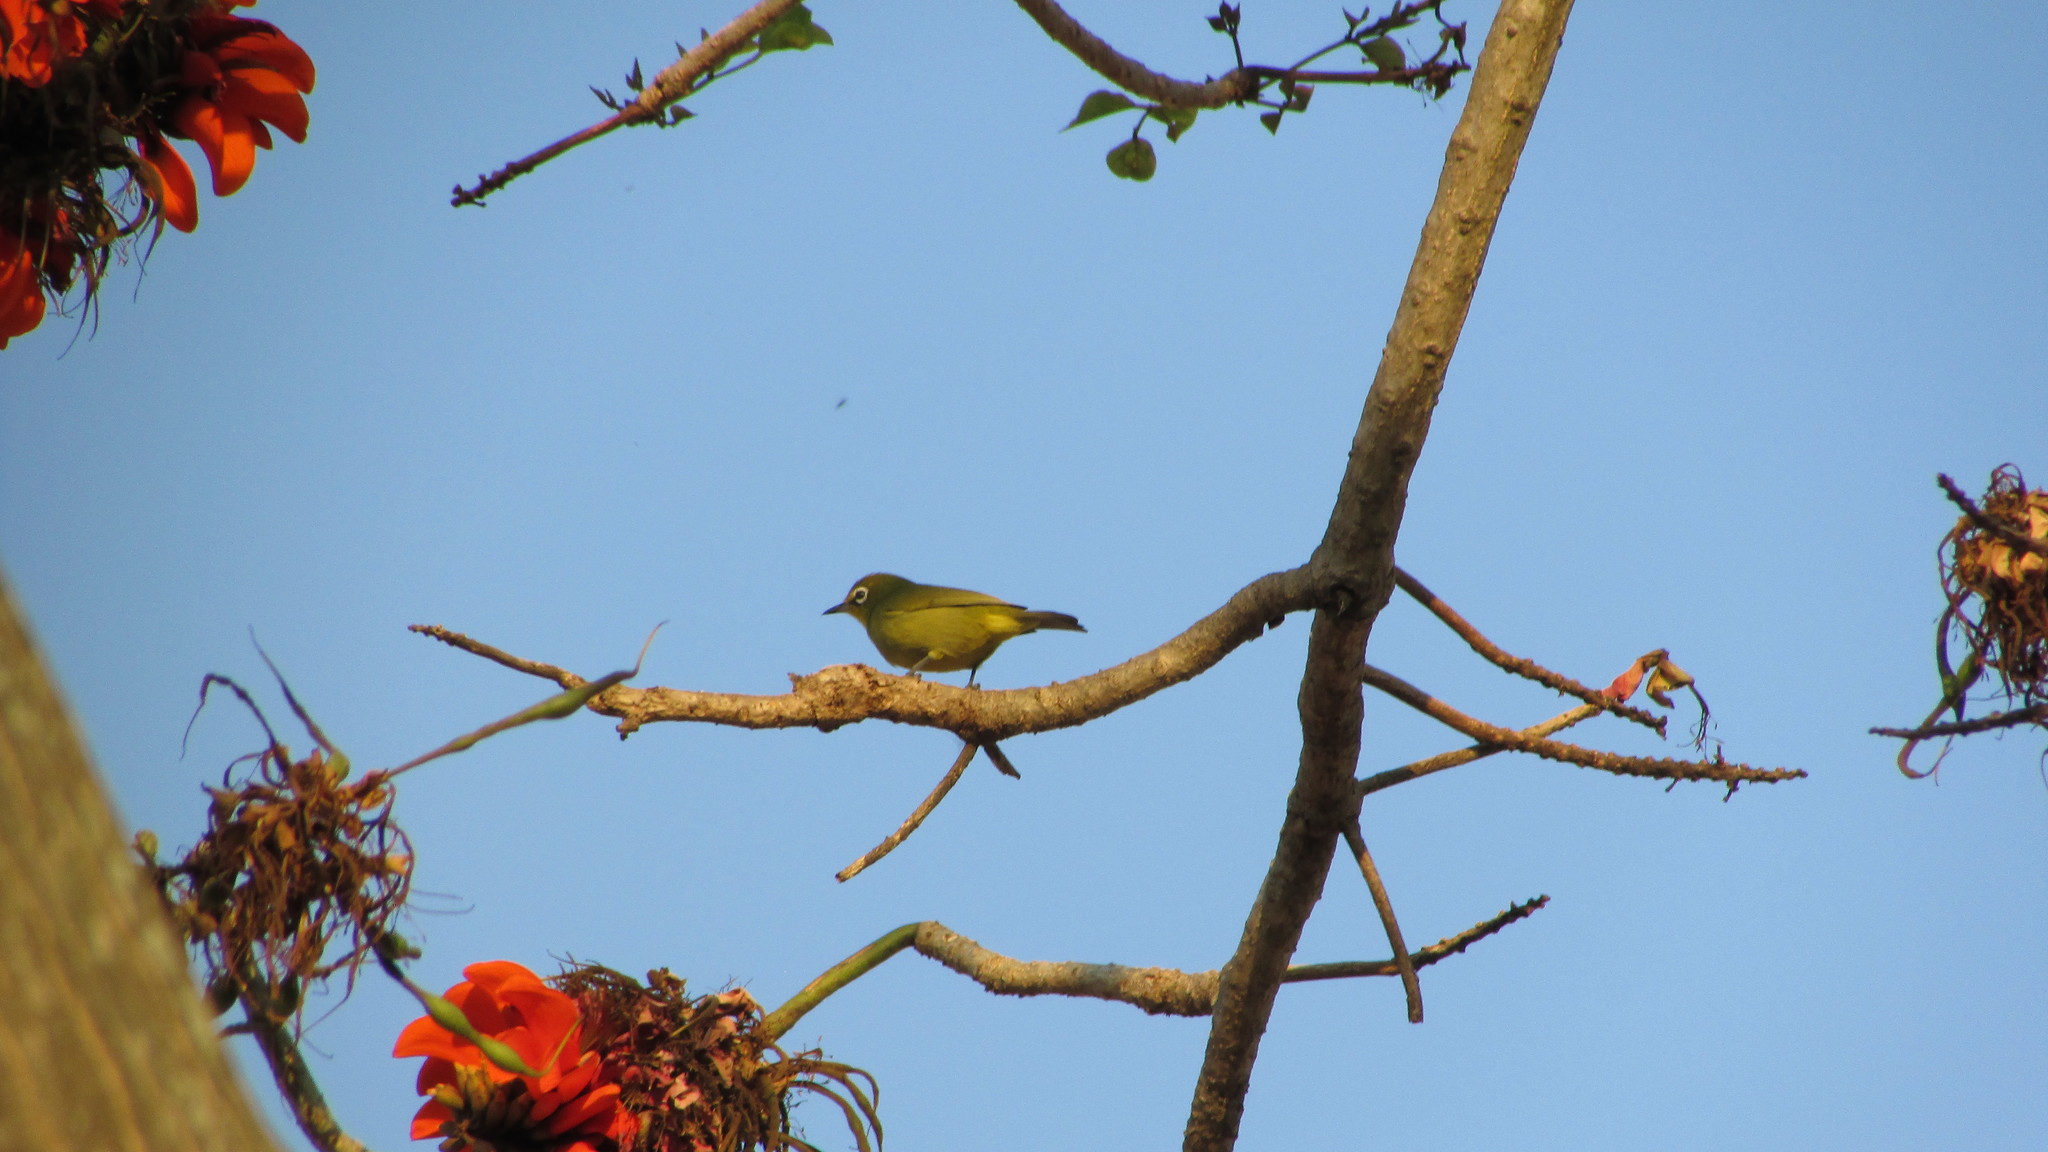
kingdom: Animalia
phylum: Chordata
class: Aves
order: Passeriformes
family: Zosteropidae
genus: Zosterops
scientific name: Zosterops virens
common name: Cape white-eye
